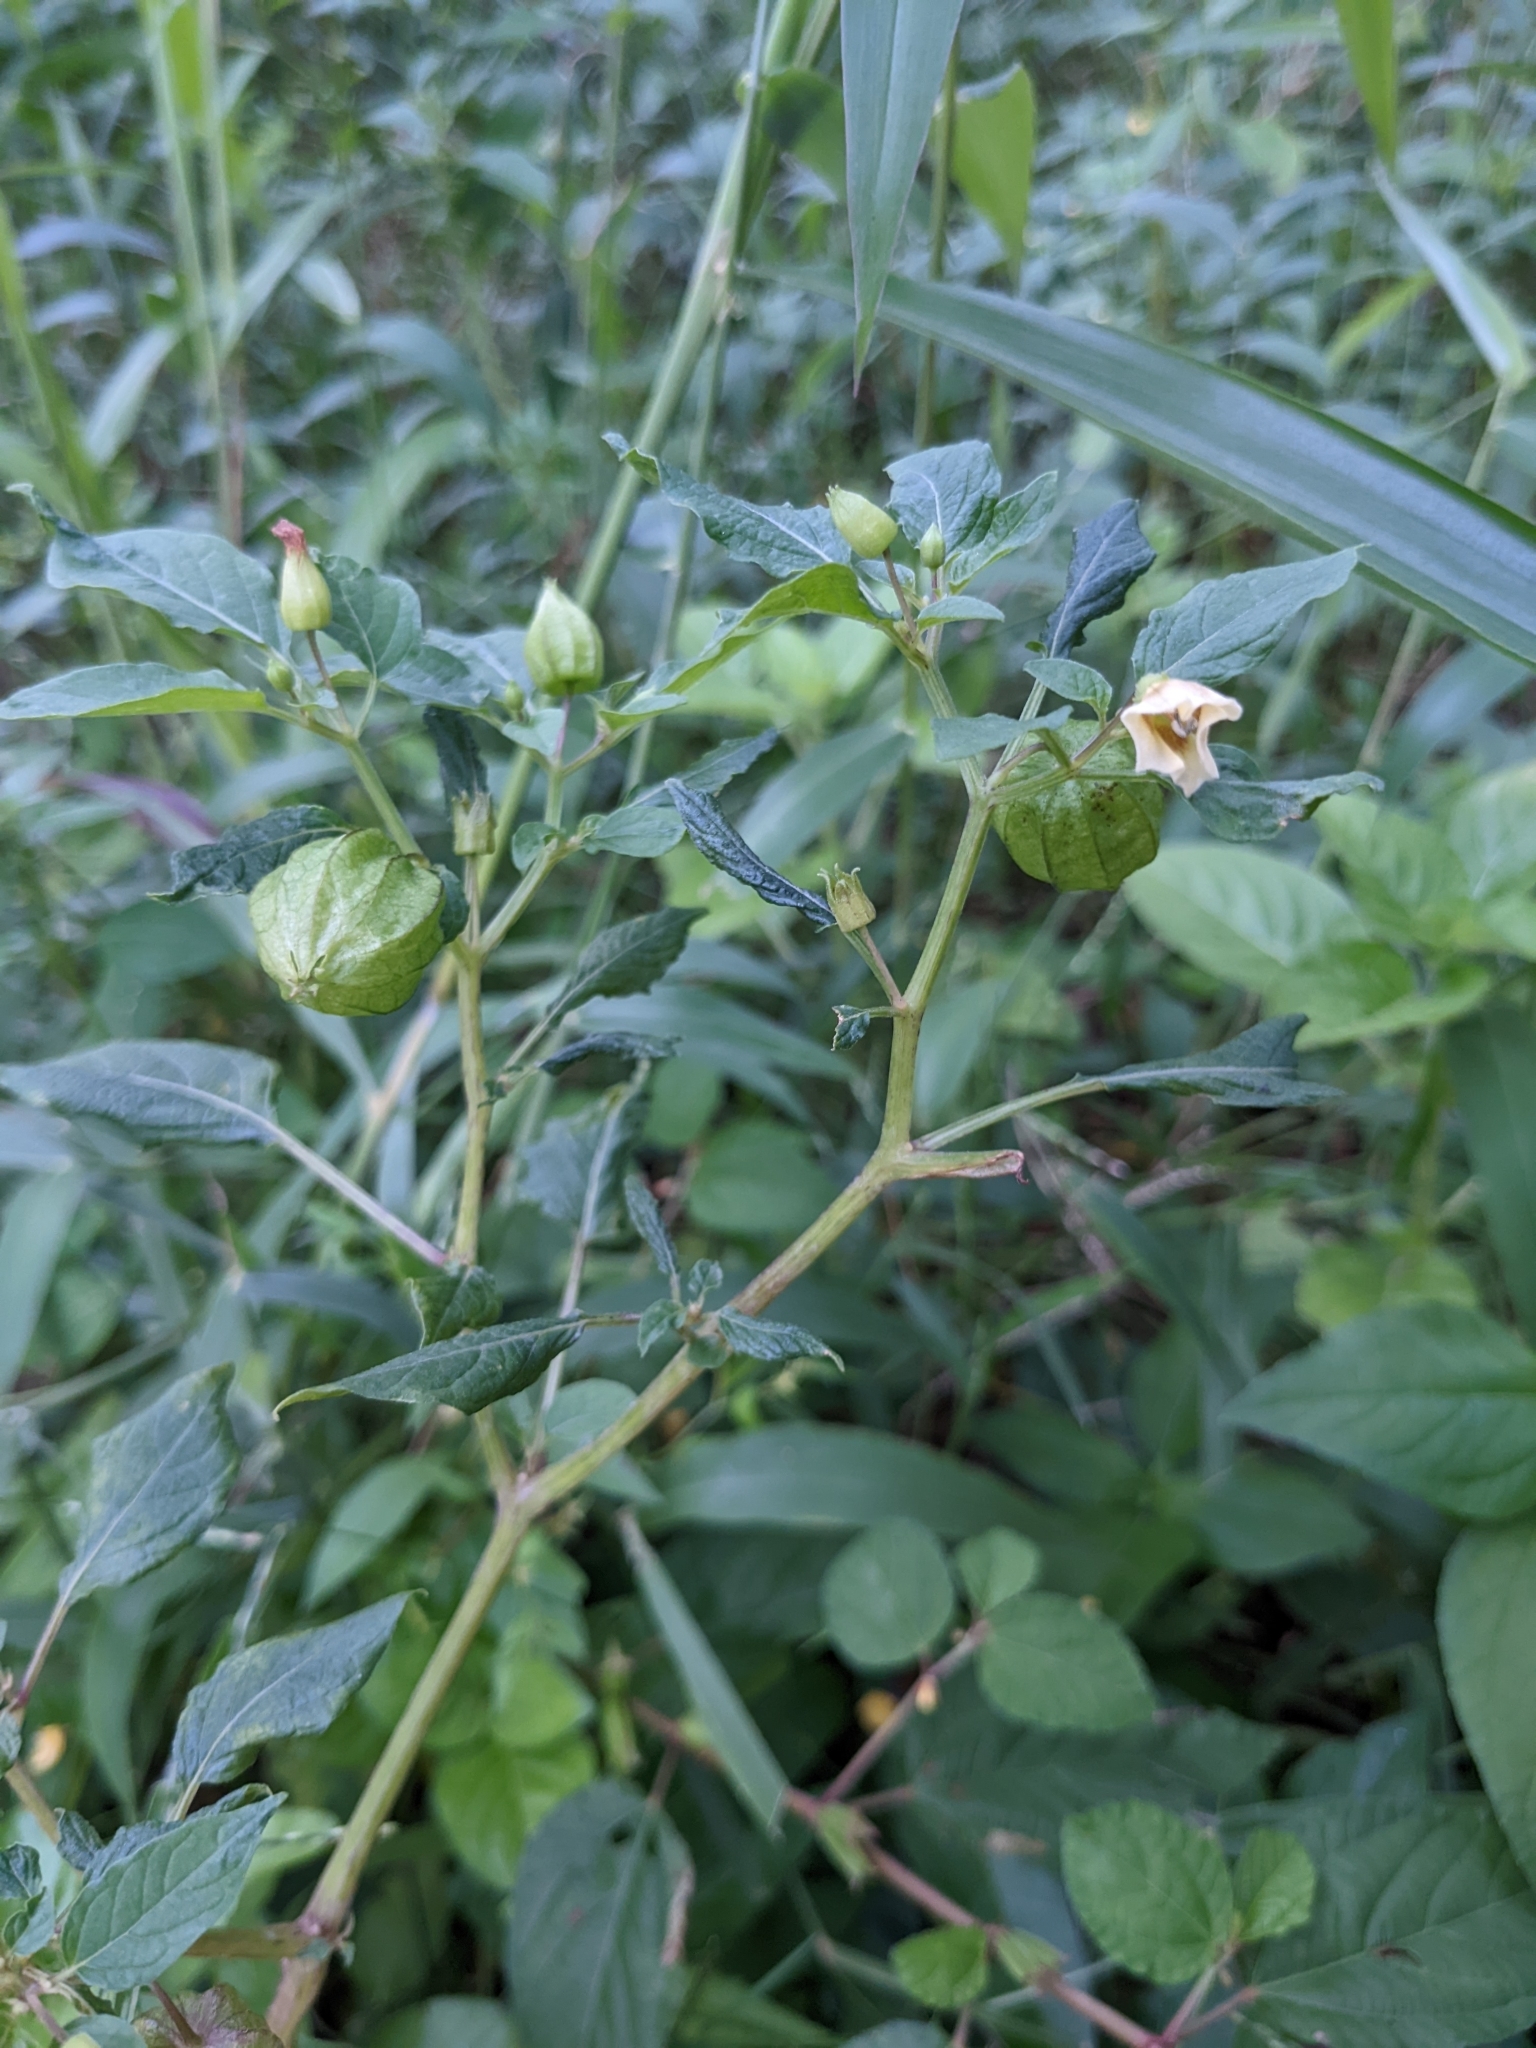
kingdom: Plantae
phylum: Tracheophyta
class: Magnoliopsida
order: Solanales
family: Solanaceae
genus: Physalis
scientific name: Physalis angulata
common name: Angular winter-cherry
